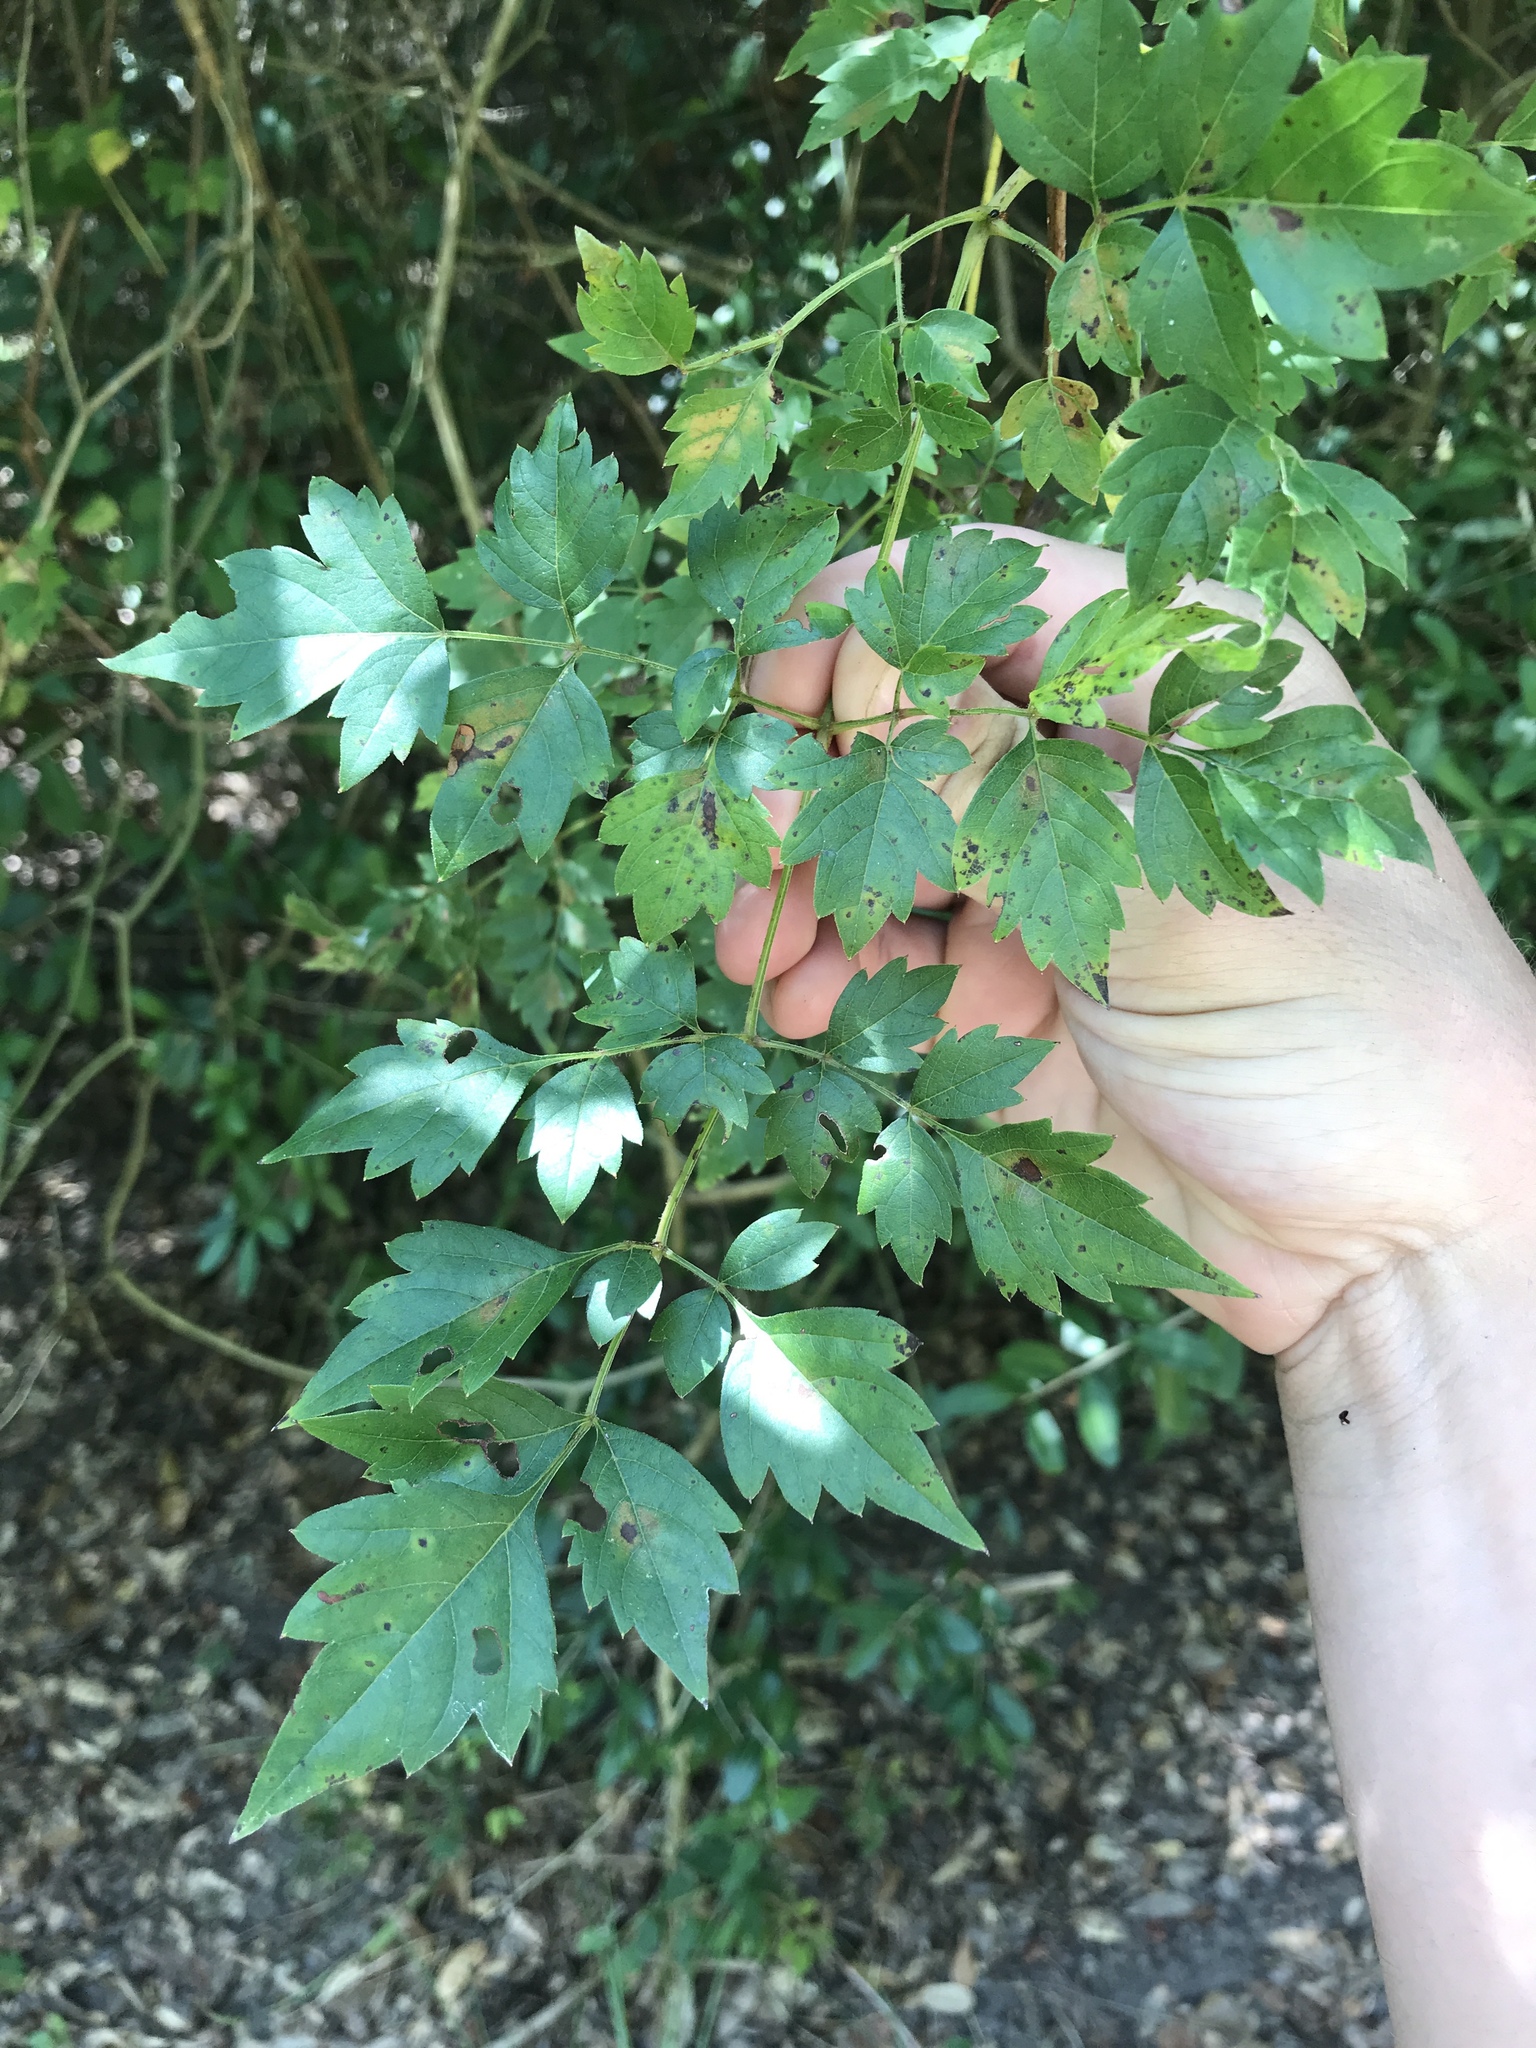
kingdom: Plantae
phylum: Tracheophyta
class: Magnoliopsida
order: Vitales
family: Vitaceae
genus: Nekemias
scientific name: Nekemias arborea
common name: Peppervine
